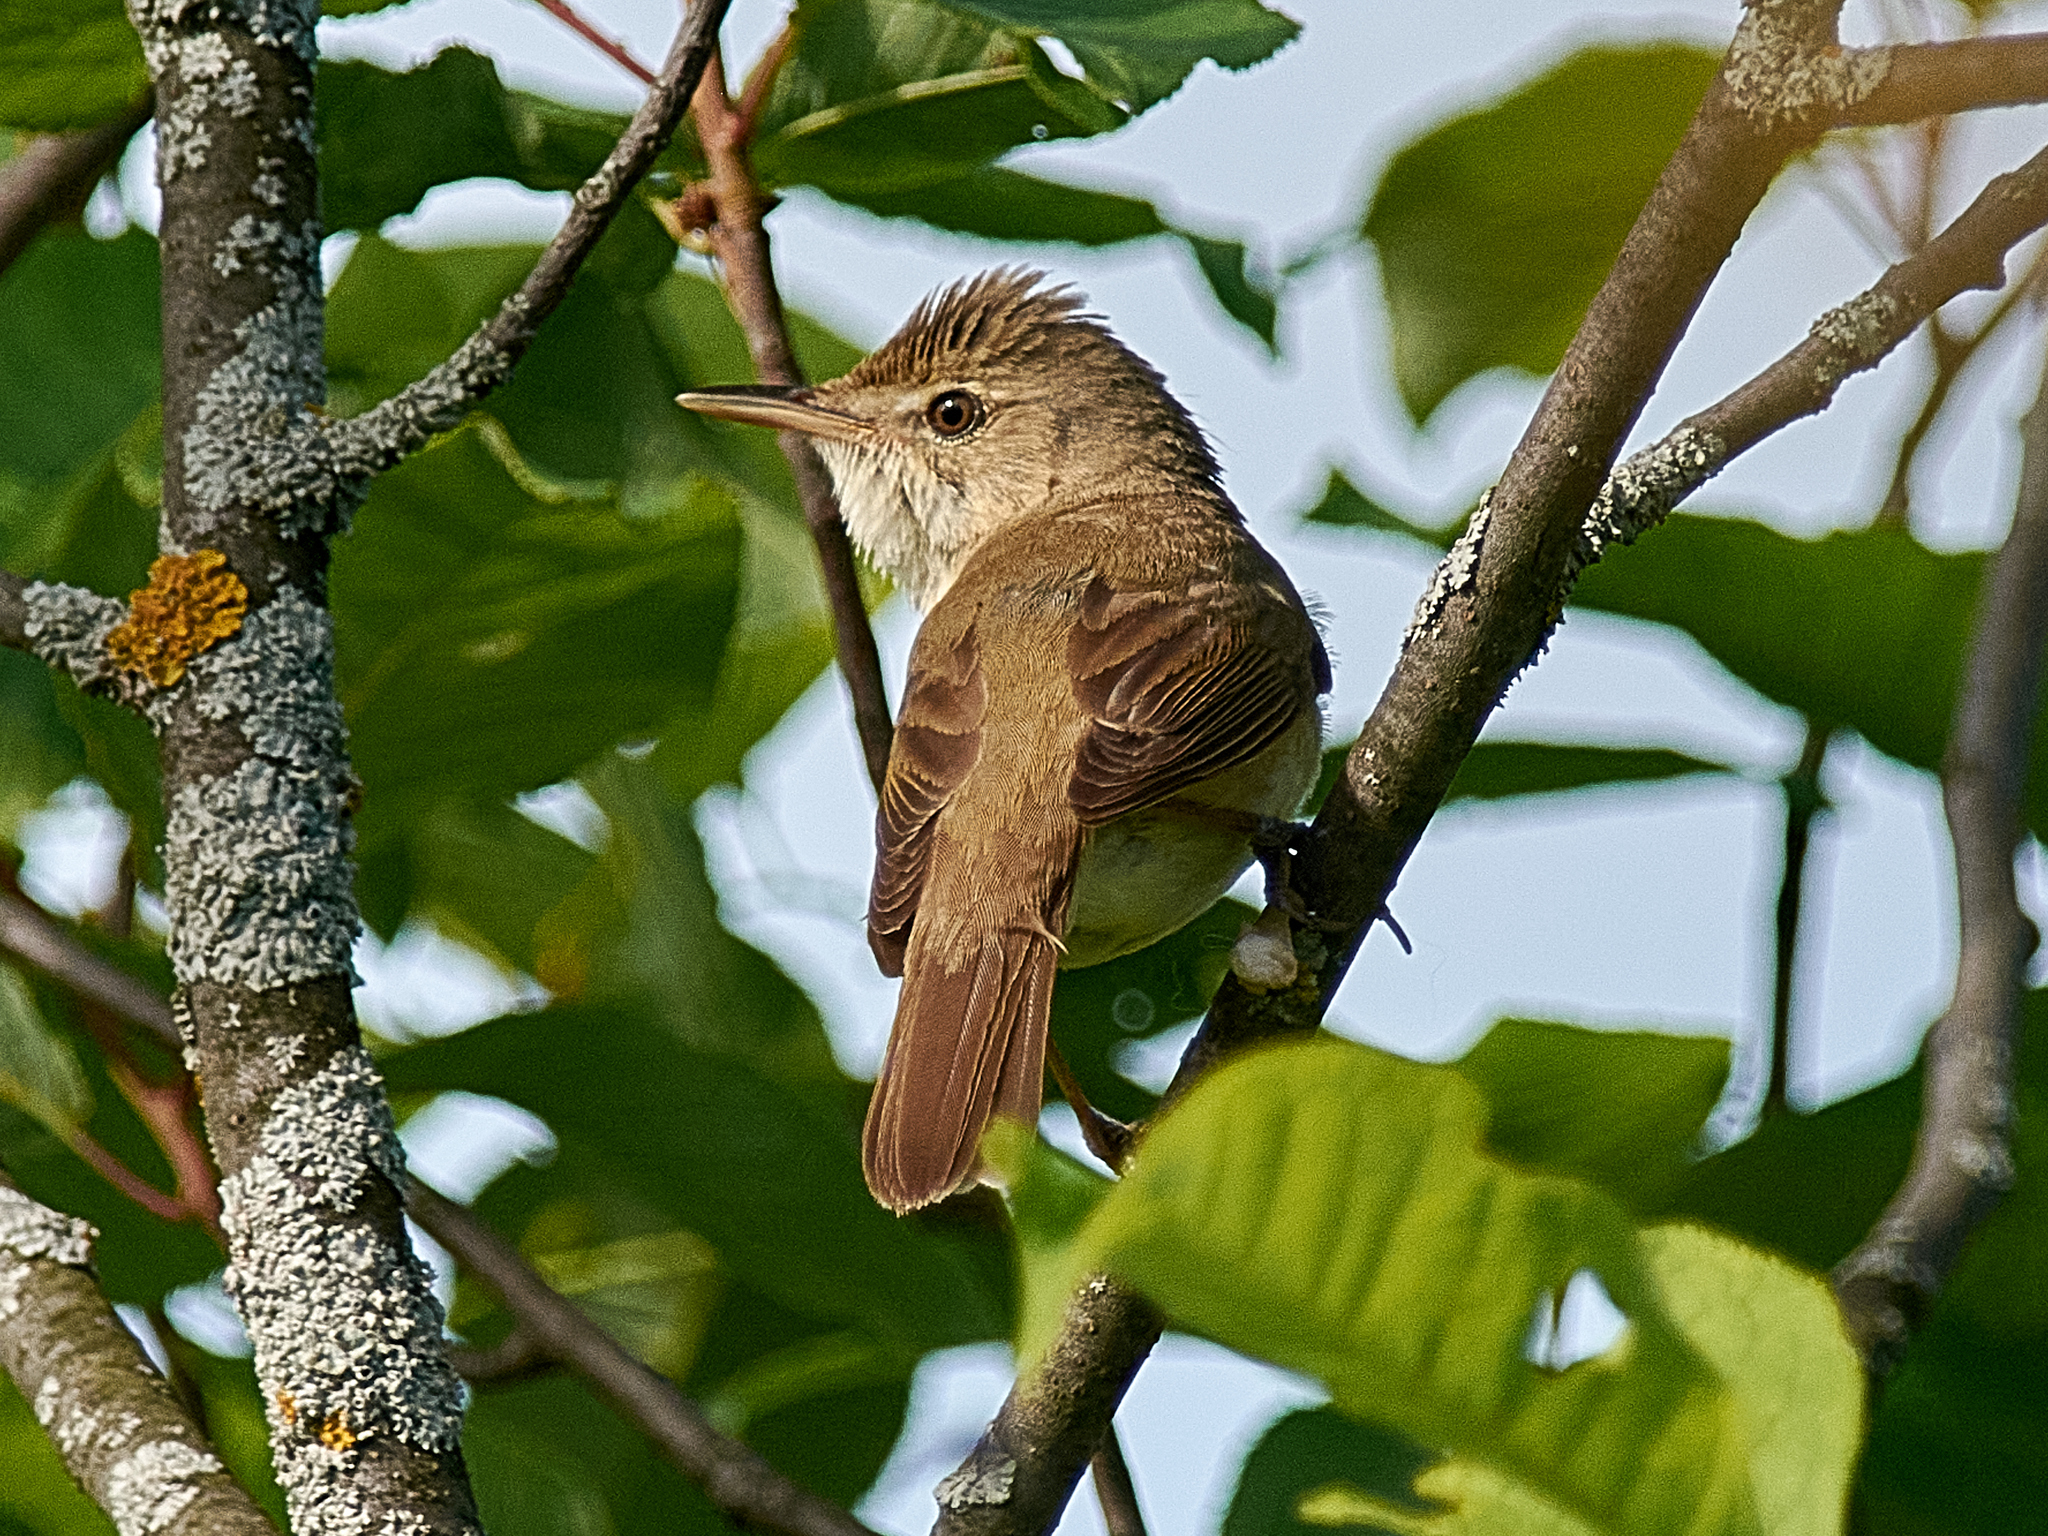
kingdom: Animalia
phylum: Chordata
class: Aves
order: Passeriformes
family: Acrocephalidae
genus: Acrocephalus
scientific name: Acrocephalus dumetorum
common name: Blyth's reed warbler
